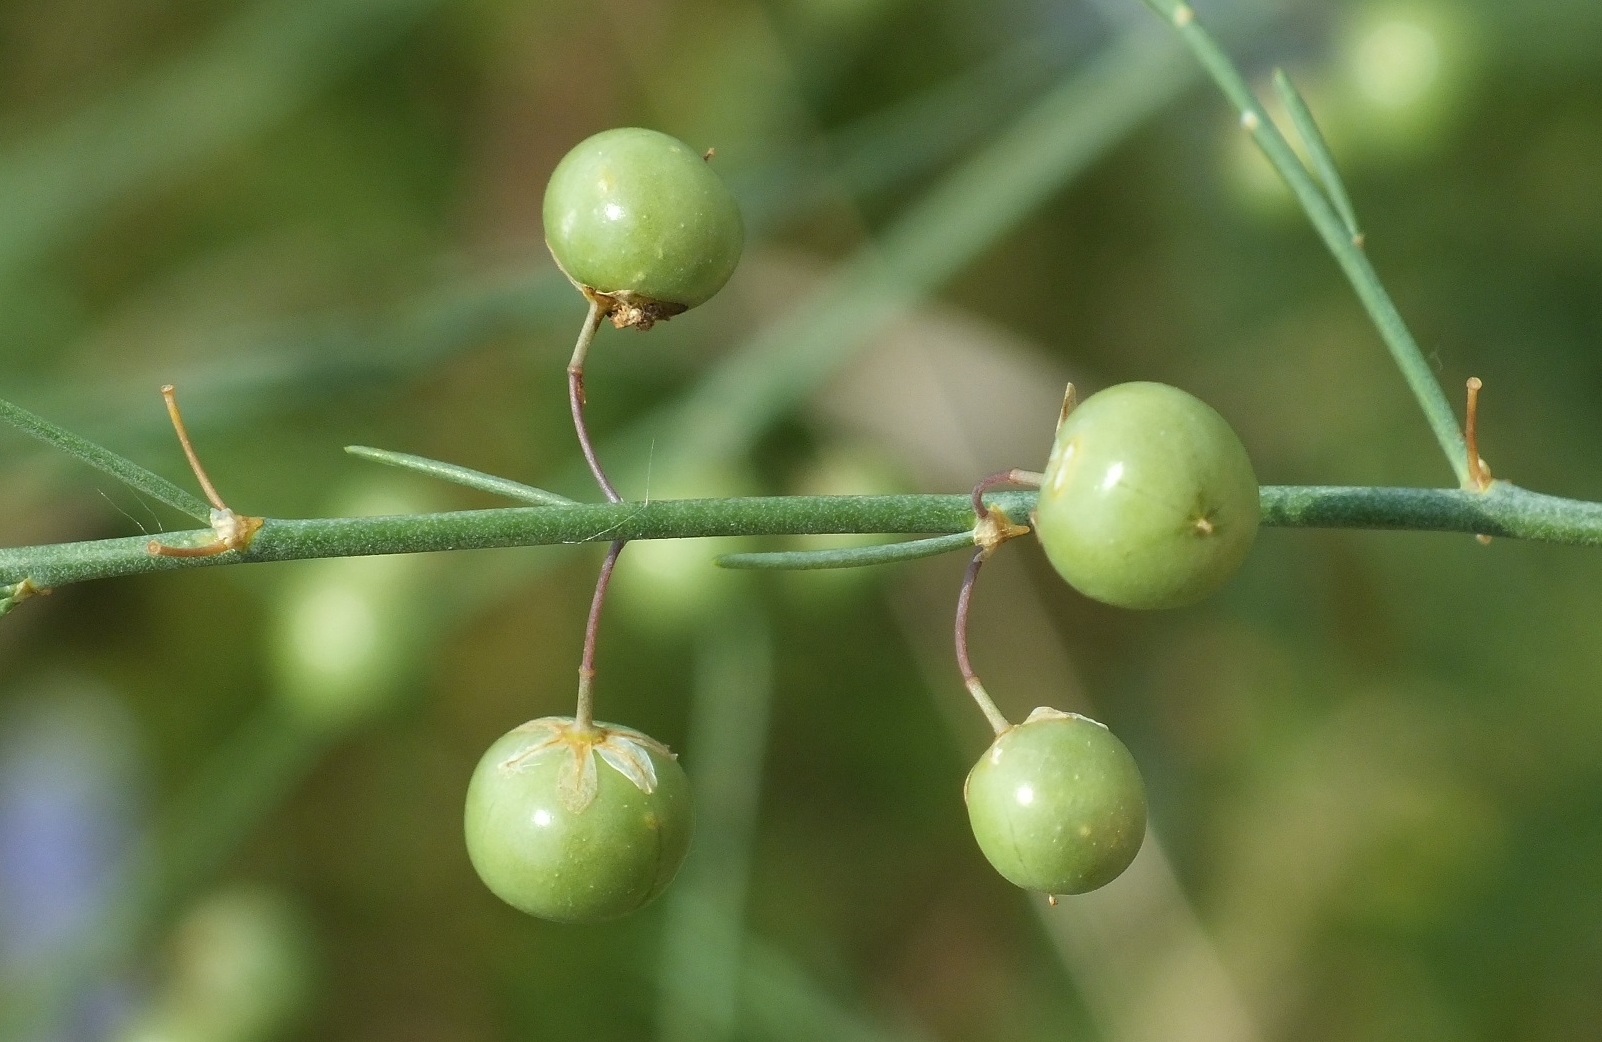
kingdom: Plantae
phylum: Tracheophyta
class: Liliopsida
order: Asparagales
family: Asparagaceae
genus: Asparagus
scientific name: Asparagus officinalis
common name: Garden asparagus
